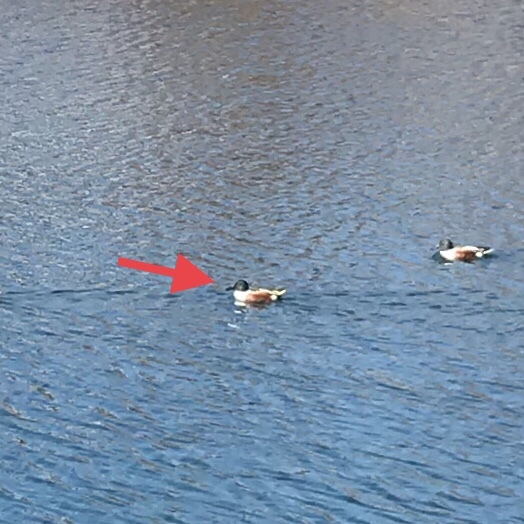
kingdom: Animalia
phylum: Chordata
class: Aves
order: Anseriformes
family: Anatidae
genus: Spatula
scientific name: Spatula clypeata
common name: Northern shoveler
